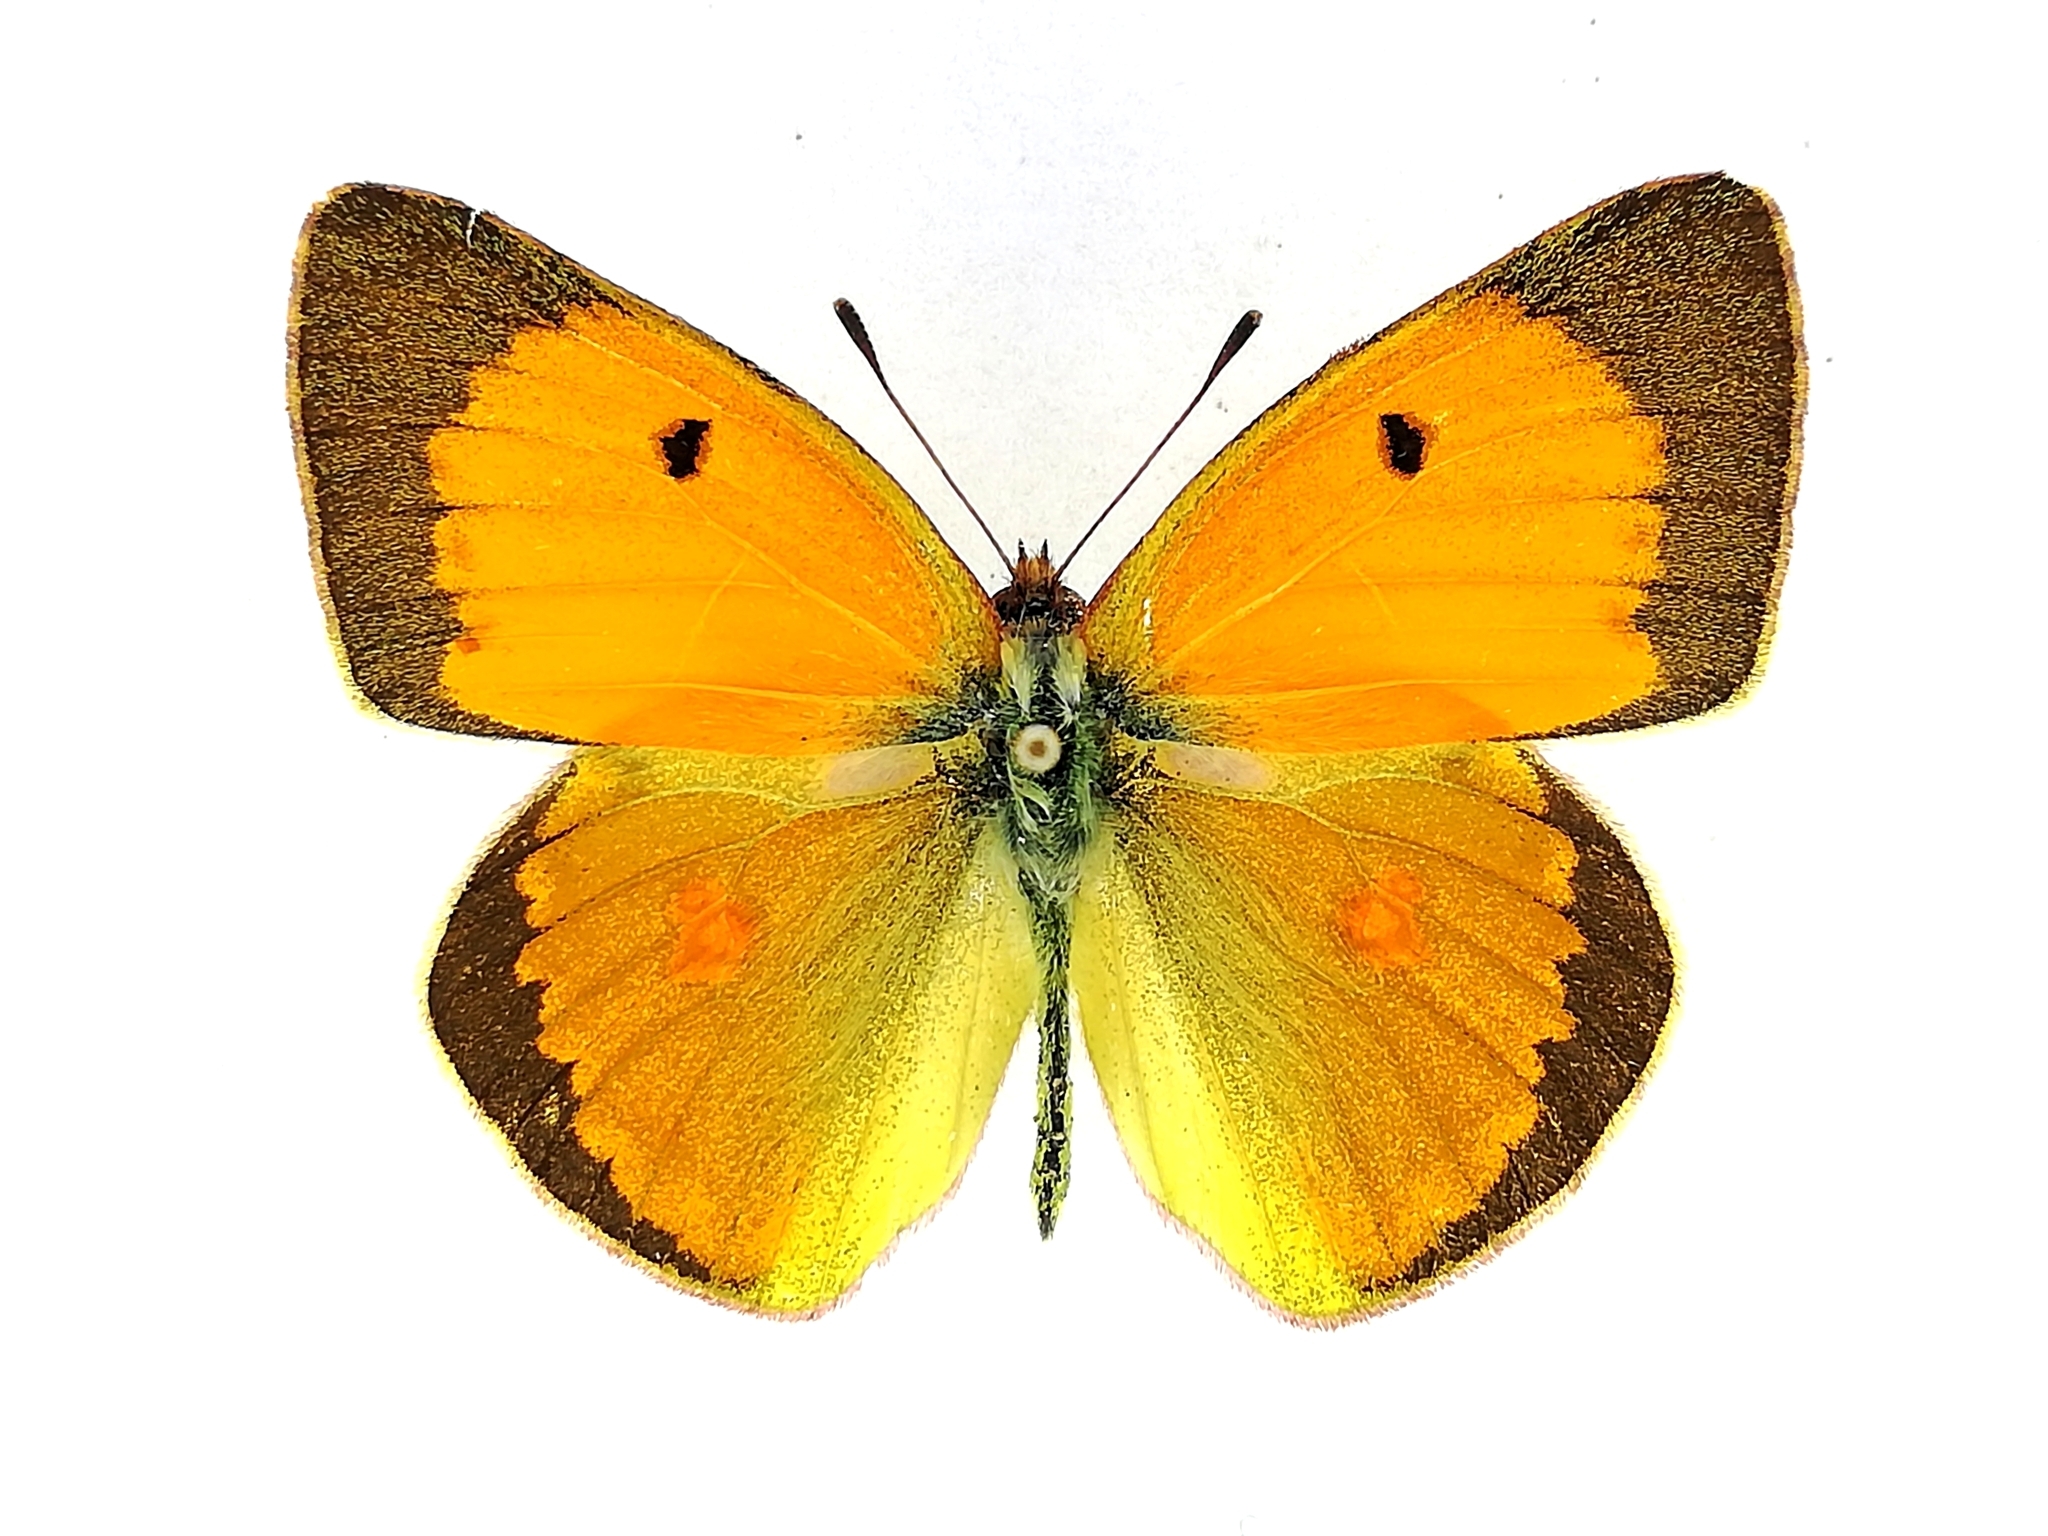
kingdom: Animalia
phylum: Arthropoda
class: Insecta
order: Lepidoptera
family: Pieridae
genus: Colias
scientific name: Colias myrmidone
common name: Danube clouded yellow
